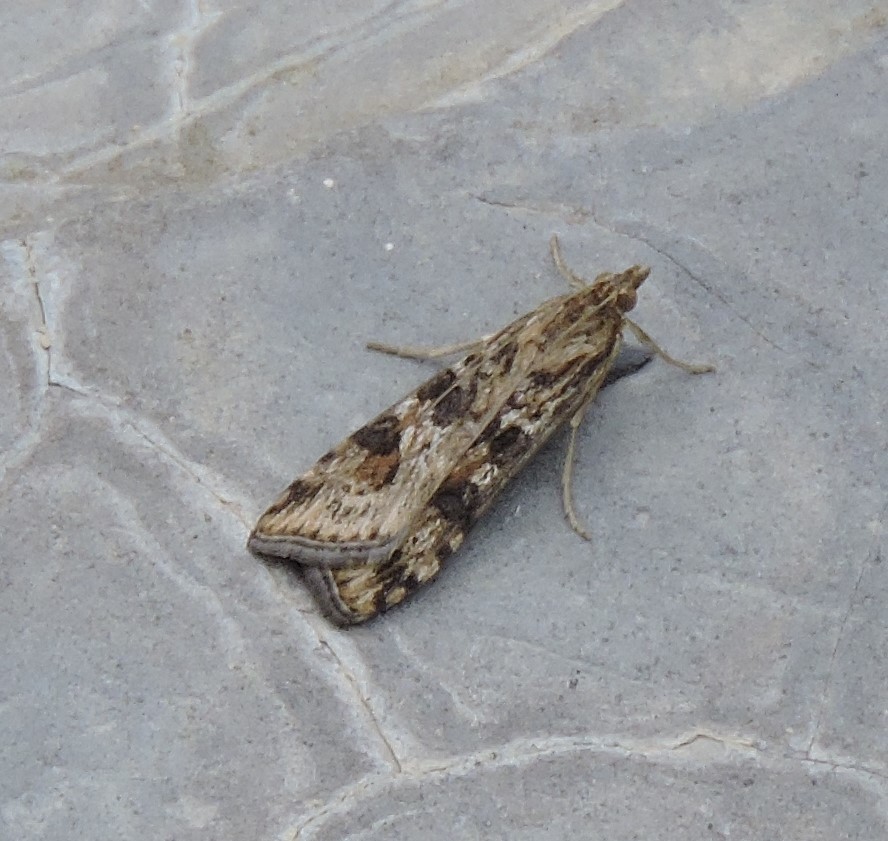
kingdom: Animalia
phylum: Arthropoda
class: Insecta
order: Lepidoptera
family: Crambidae
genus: Nomophila
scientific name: Nomophila nearctica
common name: American rush veneer
